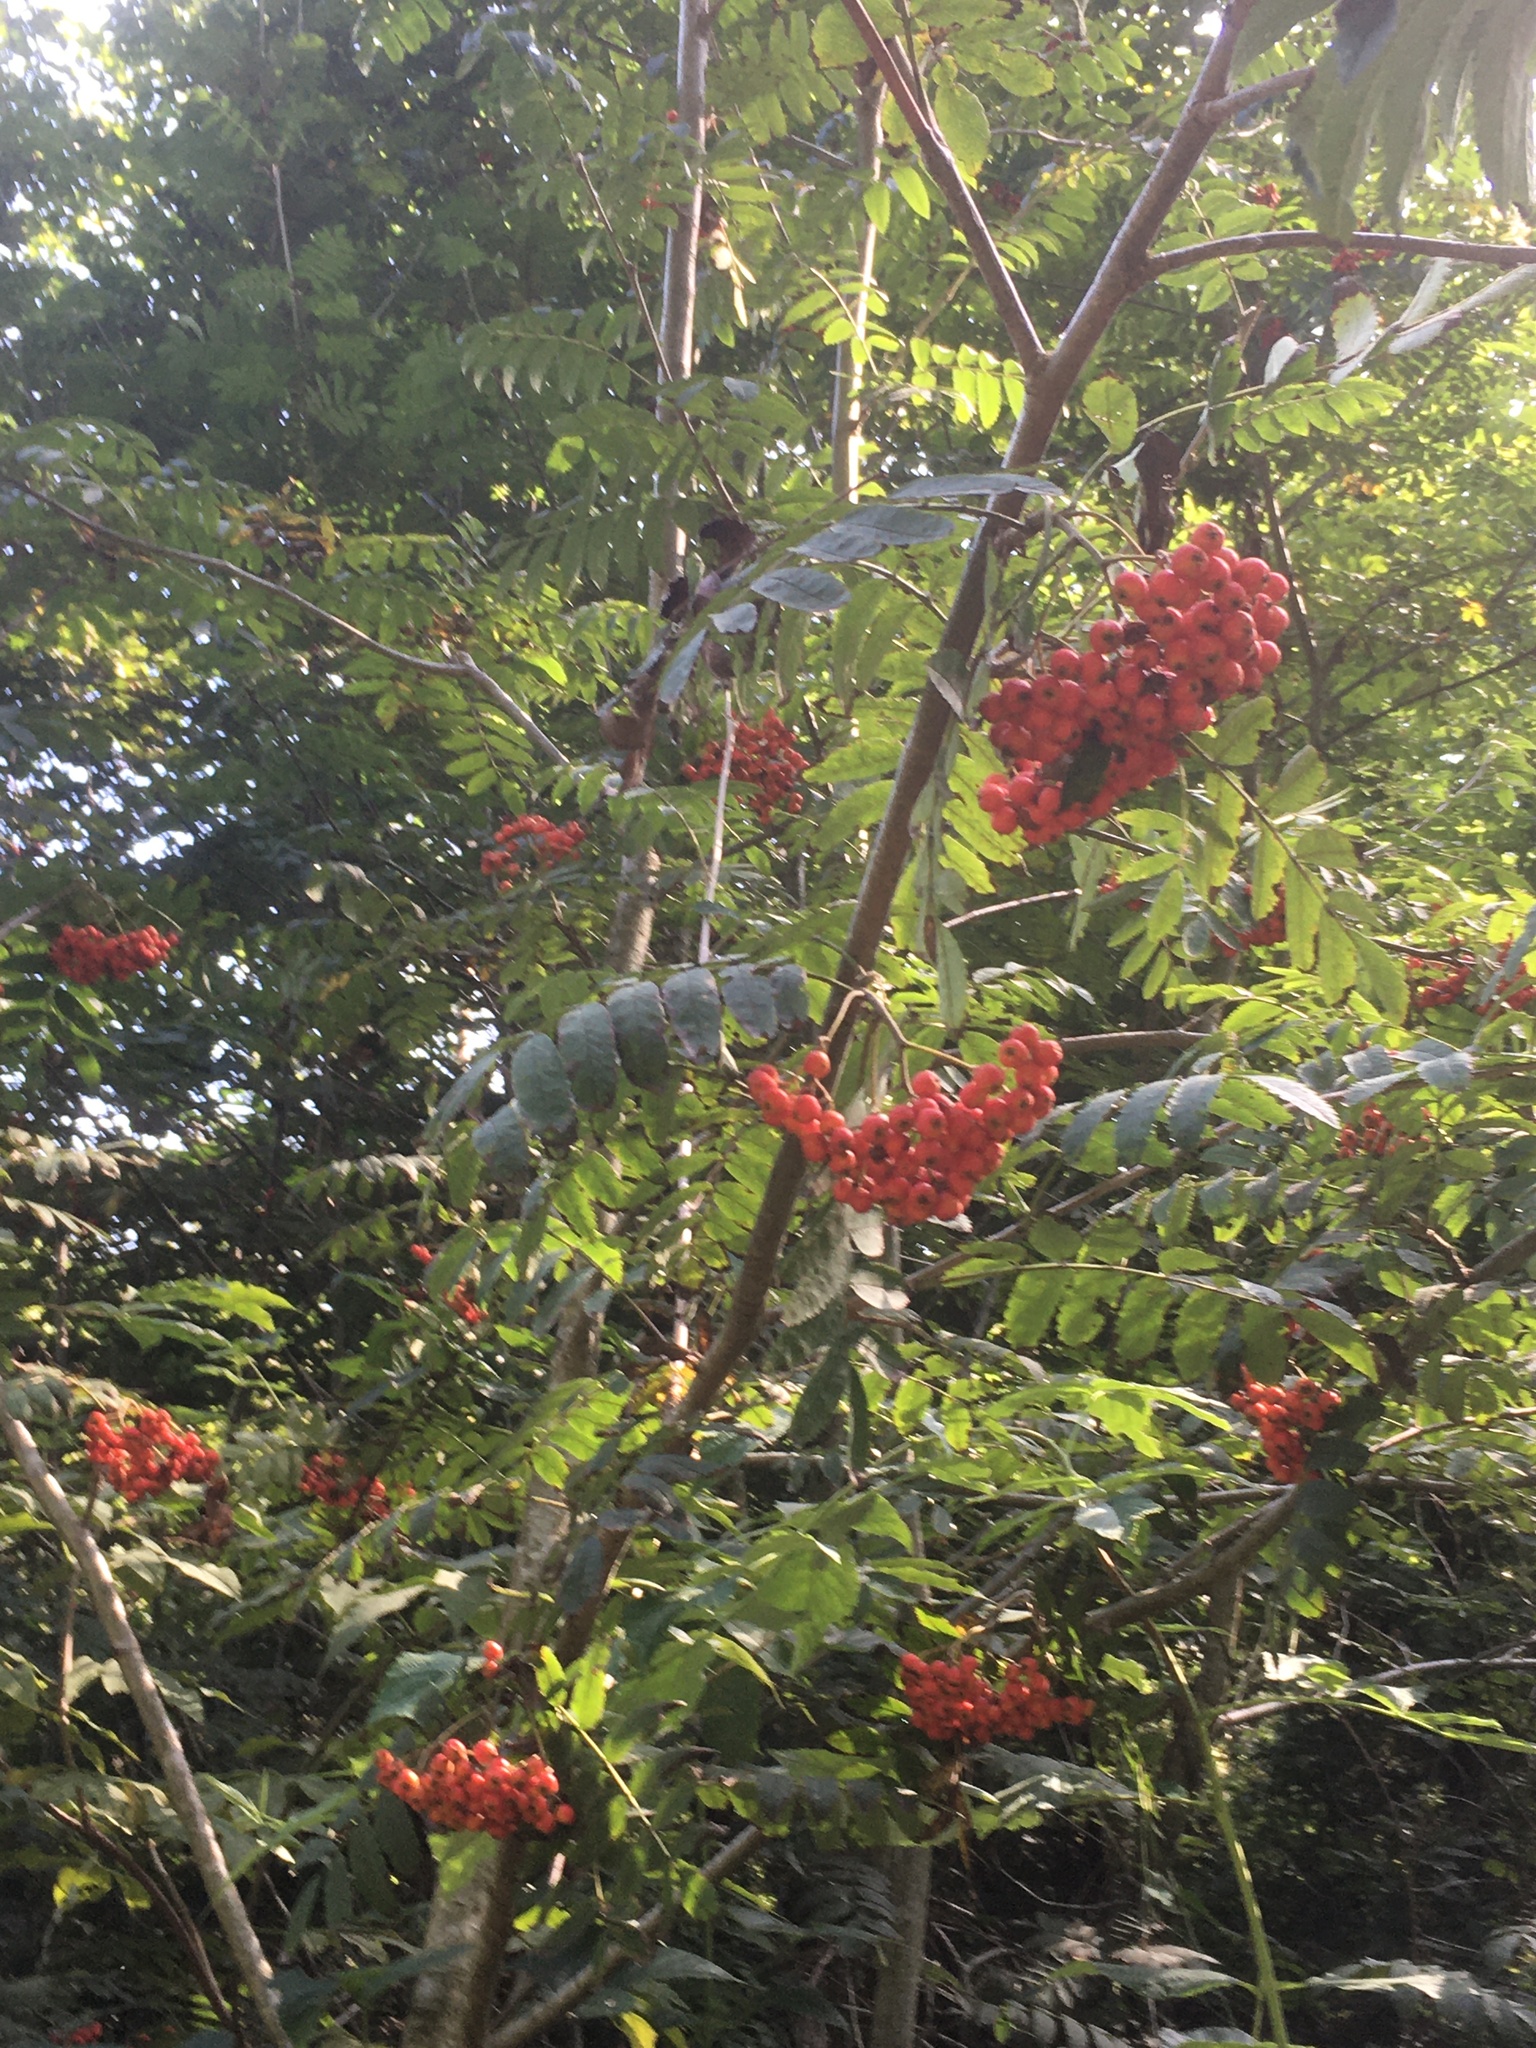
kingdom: Plantae
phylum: Tracheophyta
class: Magnoliopsida
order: Rosales
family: Rosaceae
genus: Sorbus
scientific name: Sorbus aucuparia
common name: Rowan
